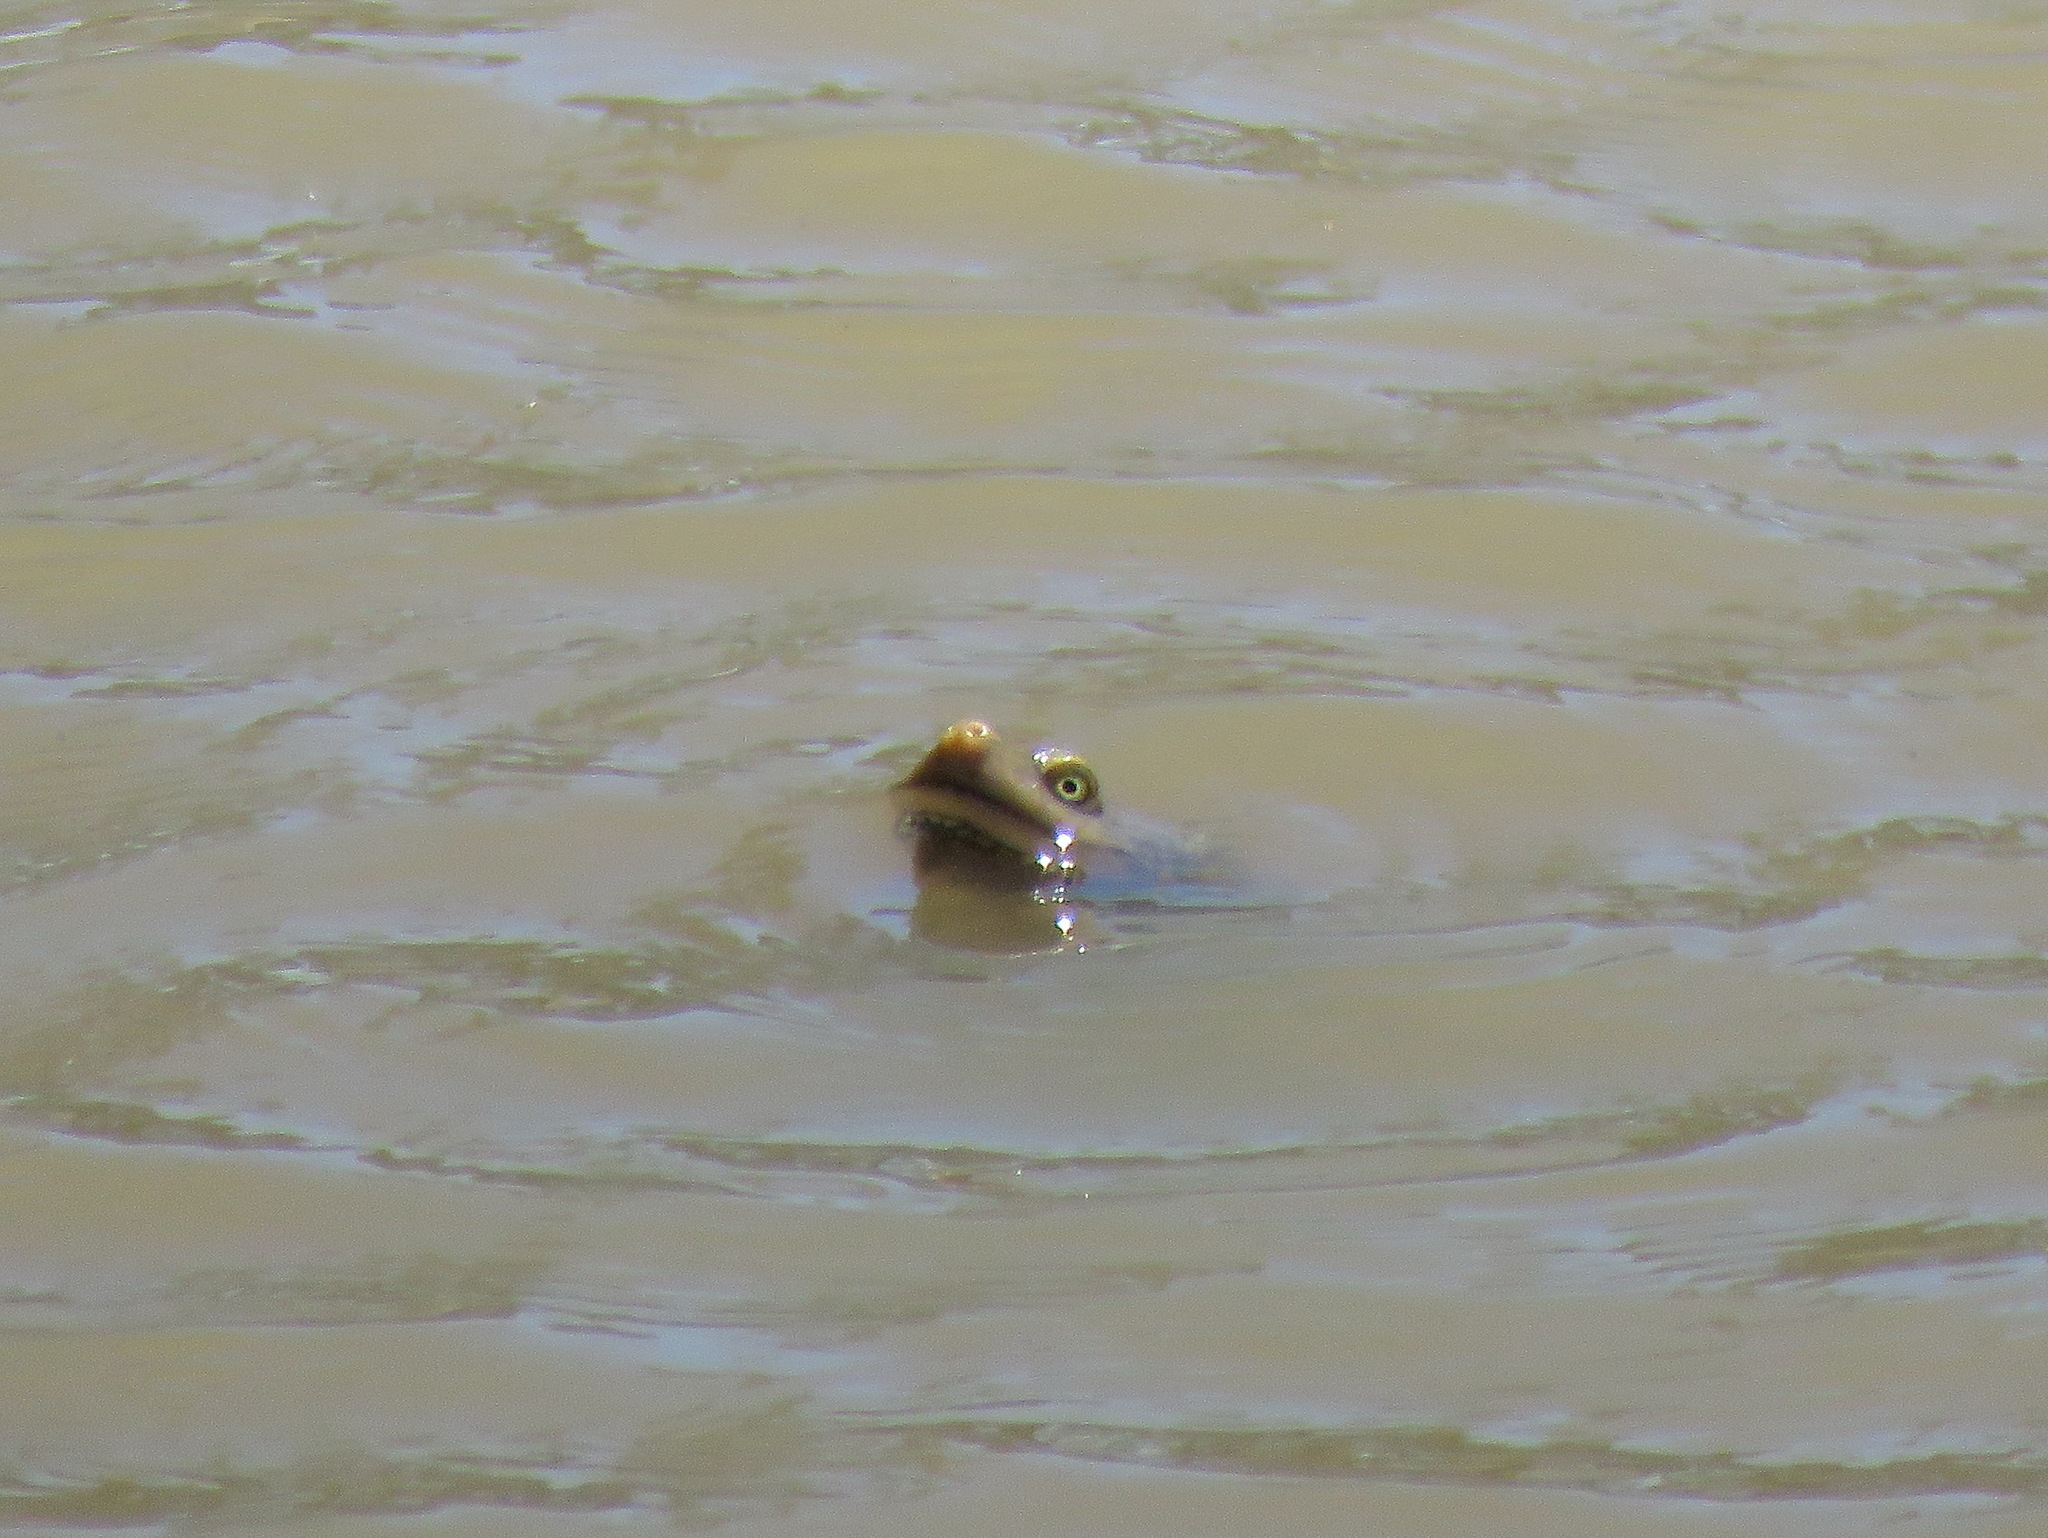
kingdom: Animalia
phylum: Chordata
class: Testudines
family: Chelidae
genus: Chelodina
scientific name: Chelodina longicollis
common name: Eastern snake-necked turtle
